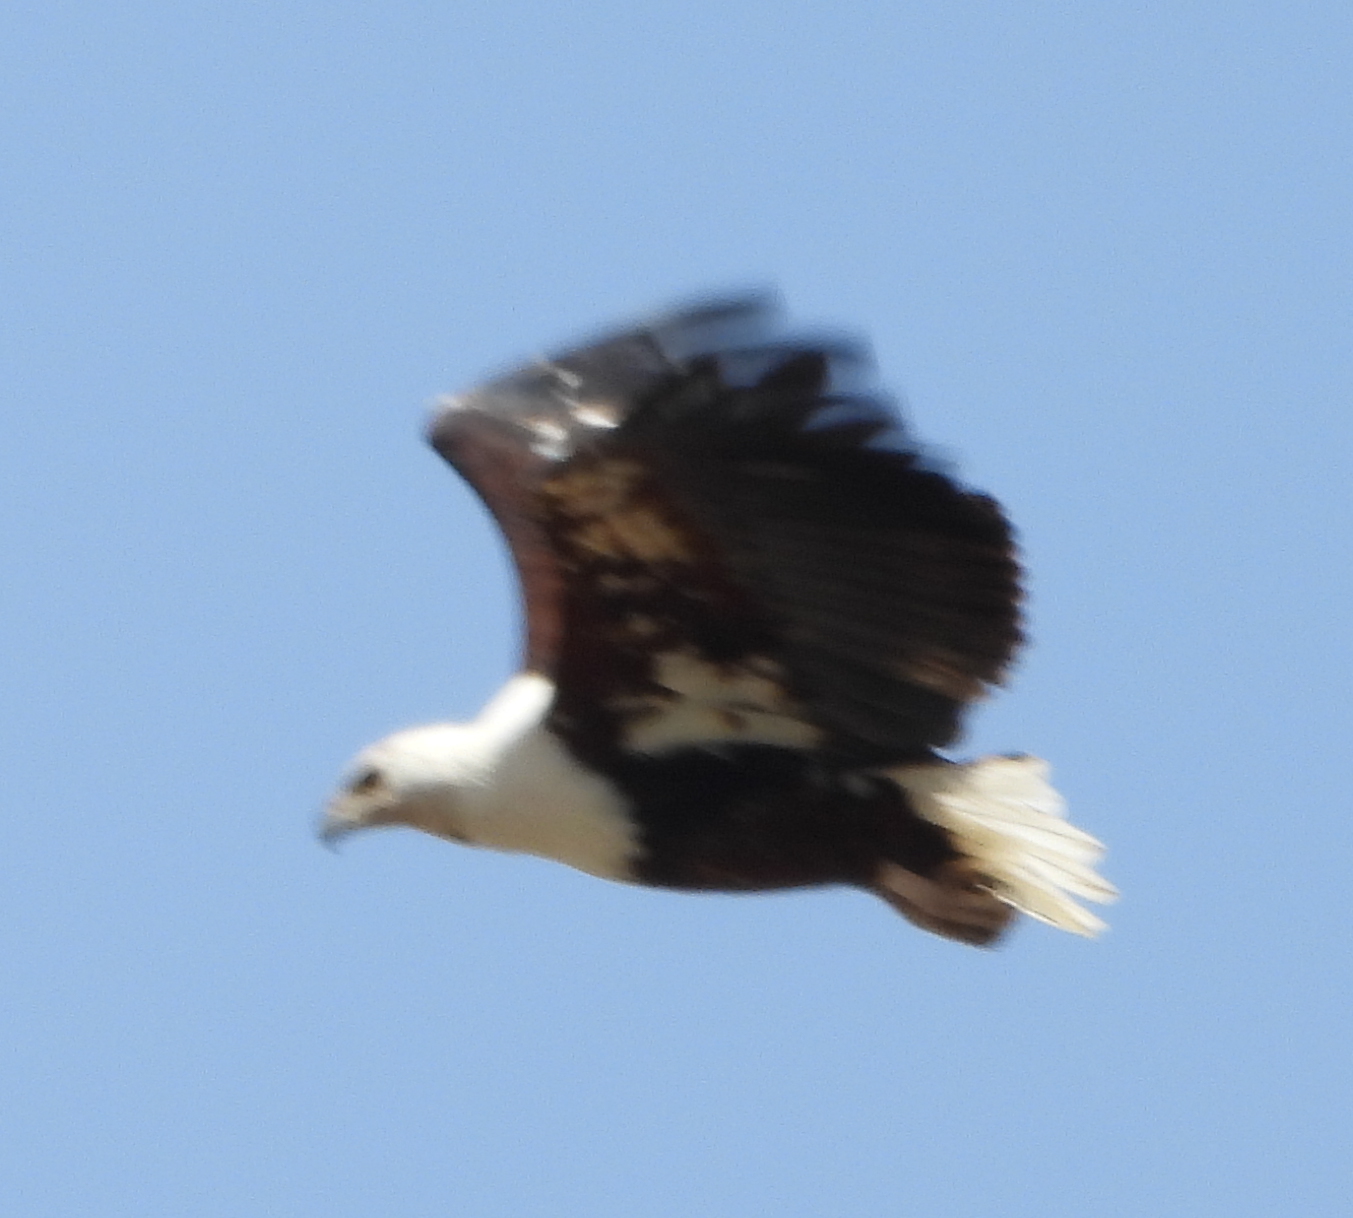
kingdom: Animalia
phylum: Chordata
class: Aves
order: Accipitriformes
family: Accipitridae
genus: Haliaeetus
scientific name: Haliaeetus vocifer
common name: African fish eagle
